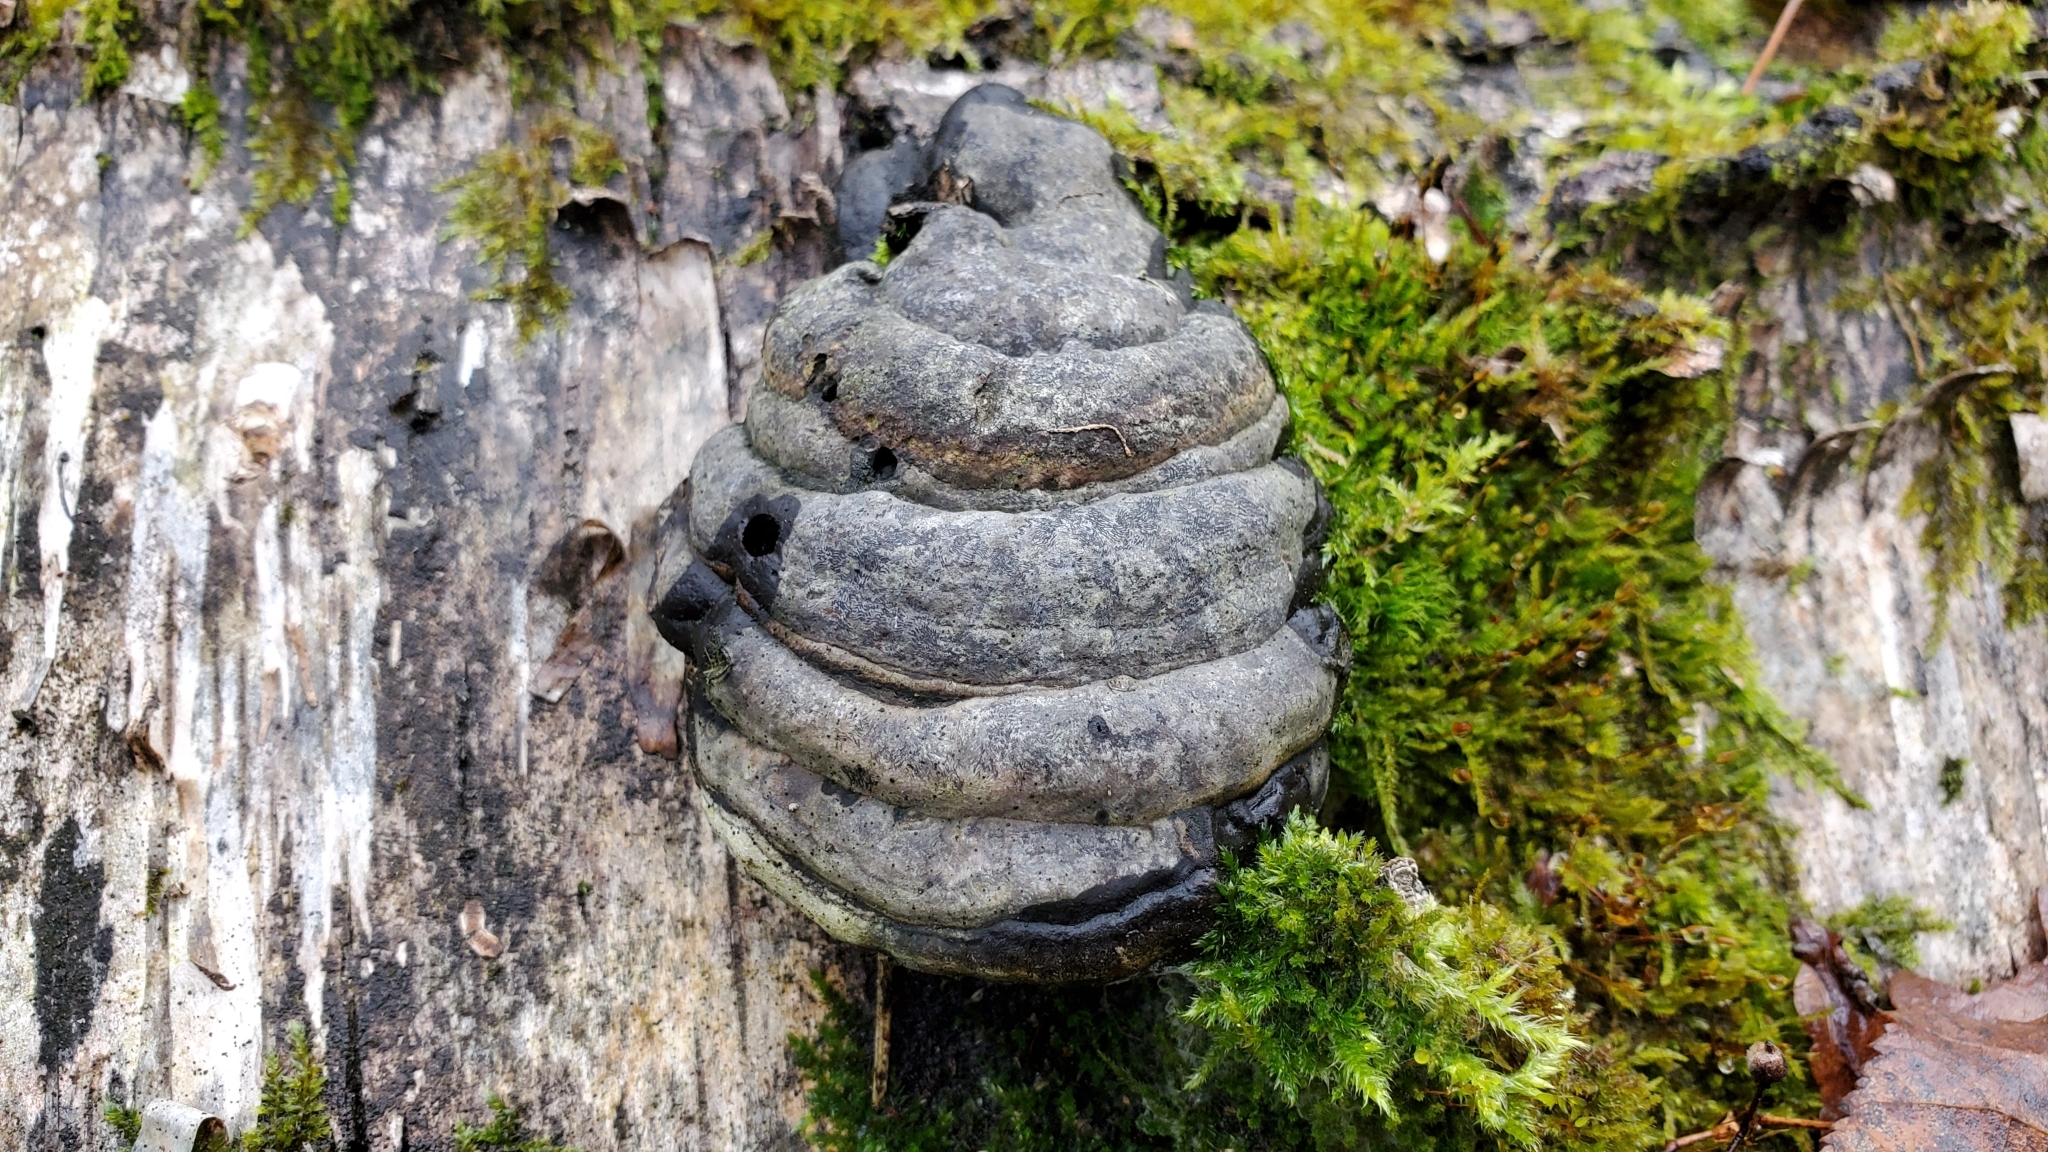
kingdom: Fungi
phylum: Basidiomycota
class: Agaricomycetes
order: Polyporales
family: Polyporaceae
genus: Fomes
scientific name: Fomes fomentarius
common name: Hoof fungus
